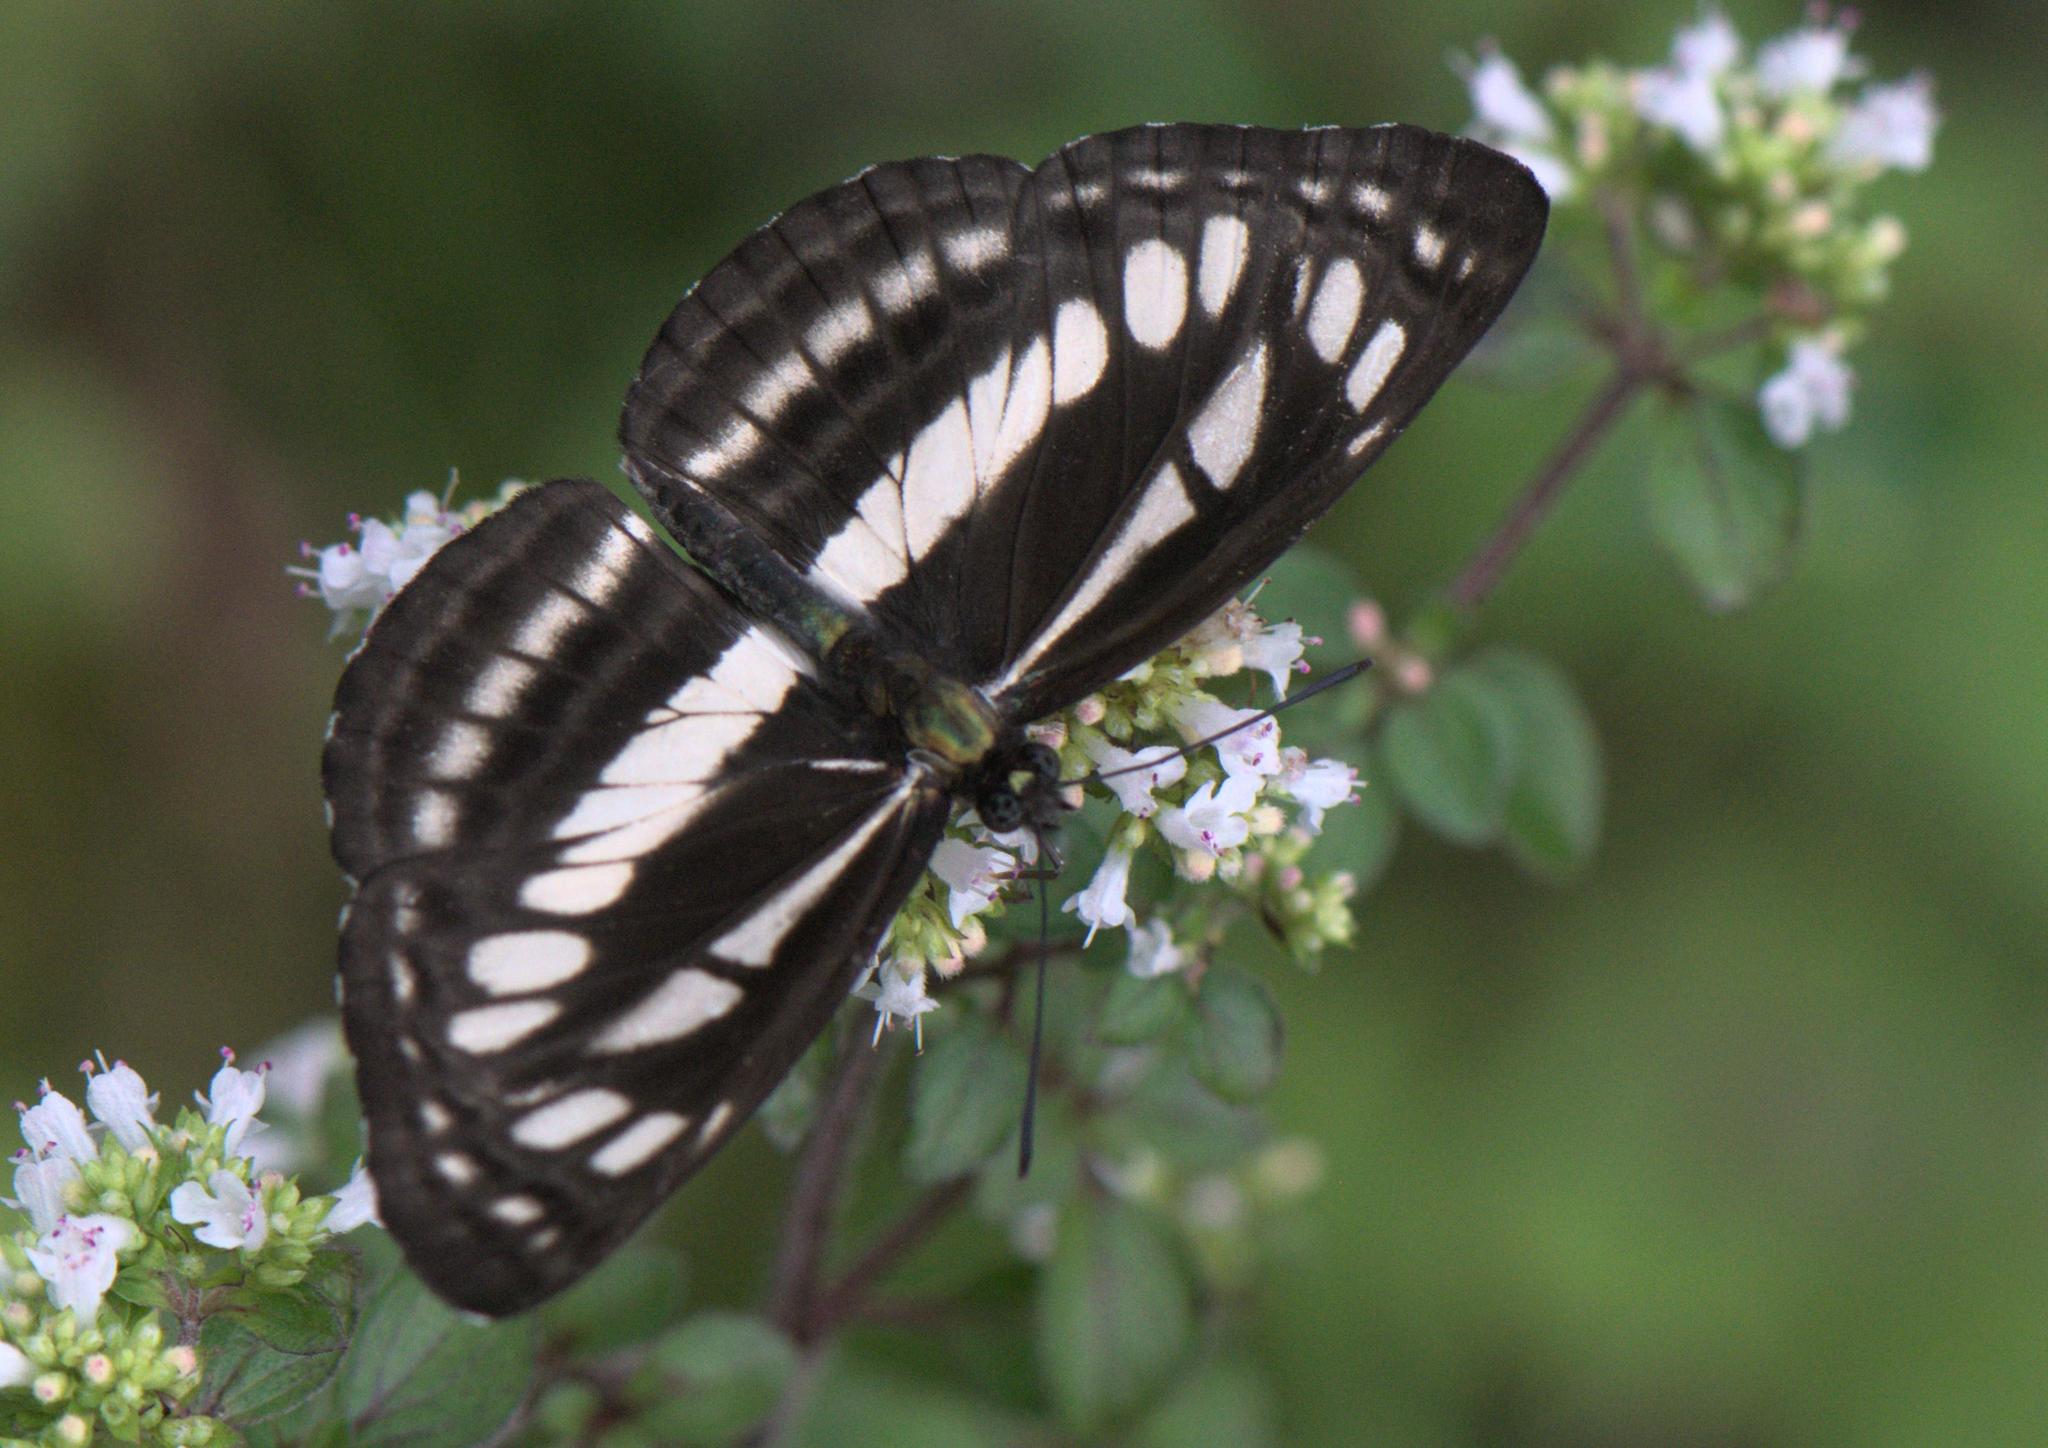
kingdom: Animalia
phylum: Arthropoda
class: Insecta
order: Lepidoptera
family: Nymphalidae
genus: Neptis
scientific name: Neptis soma
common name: Cream-spotted sailor
